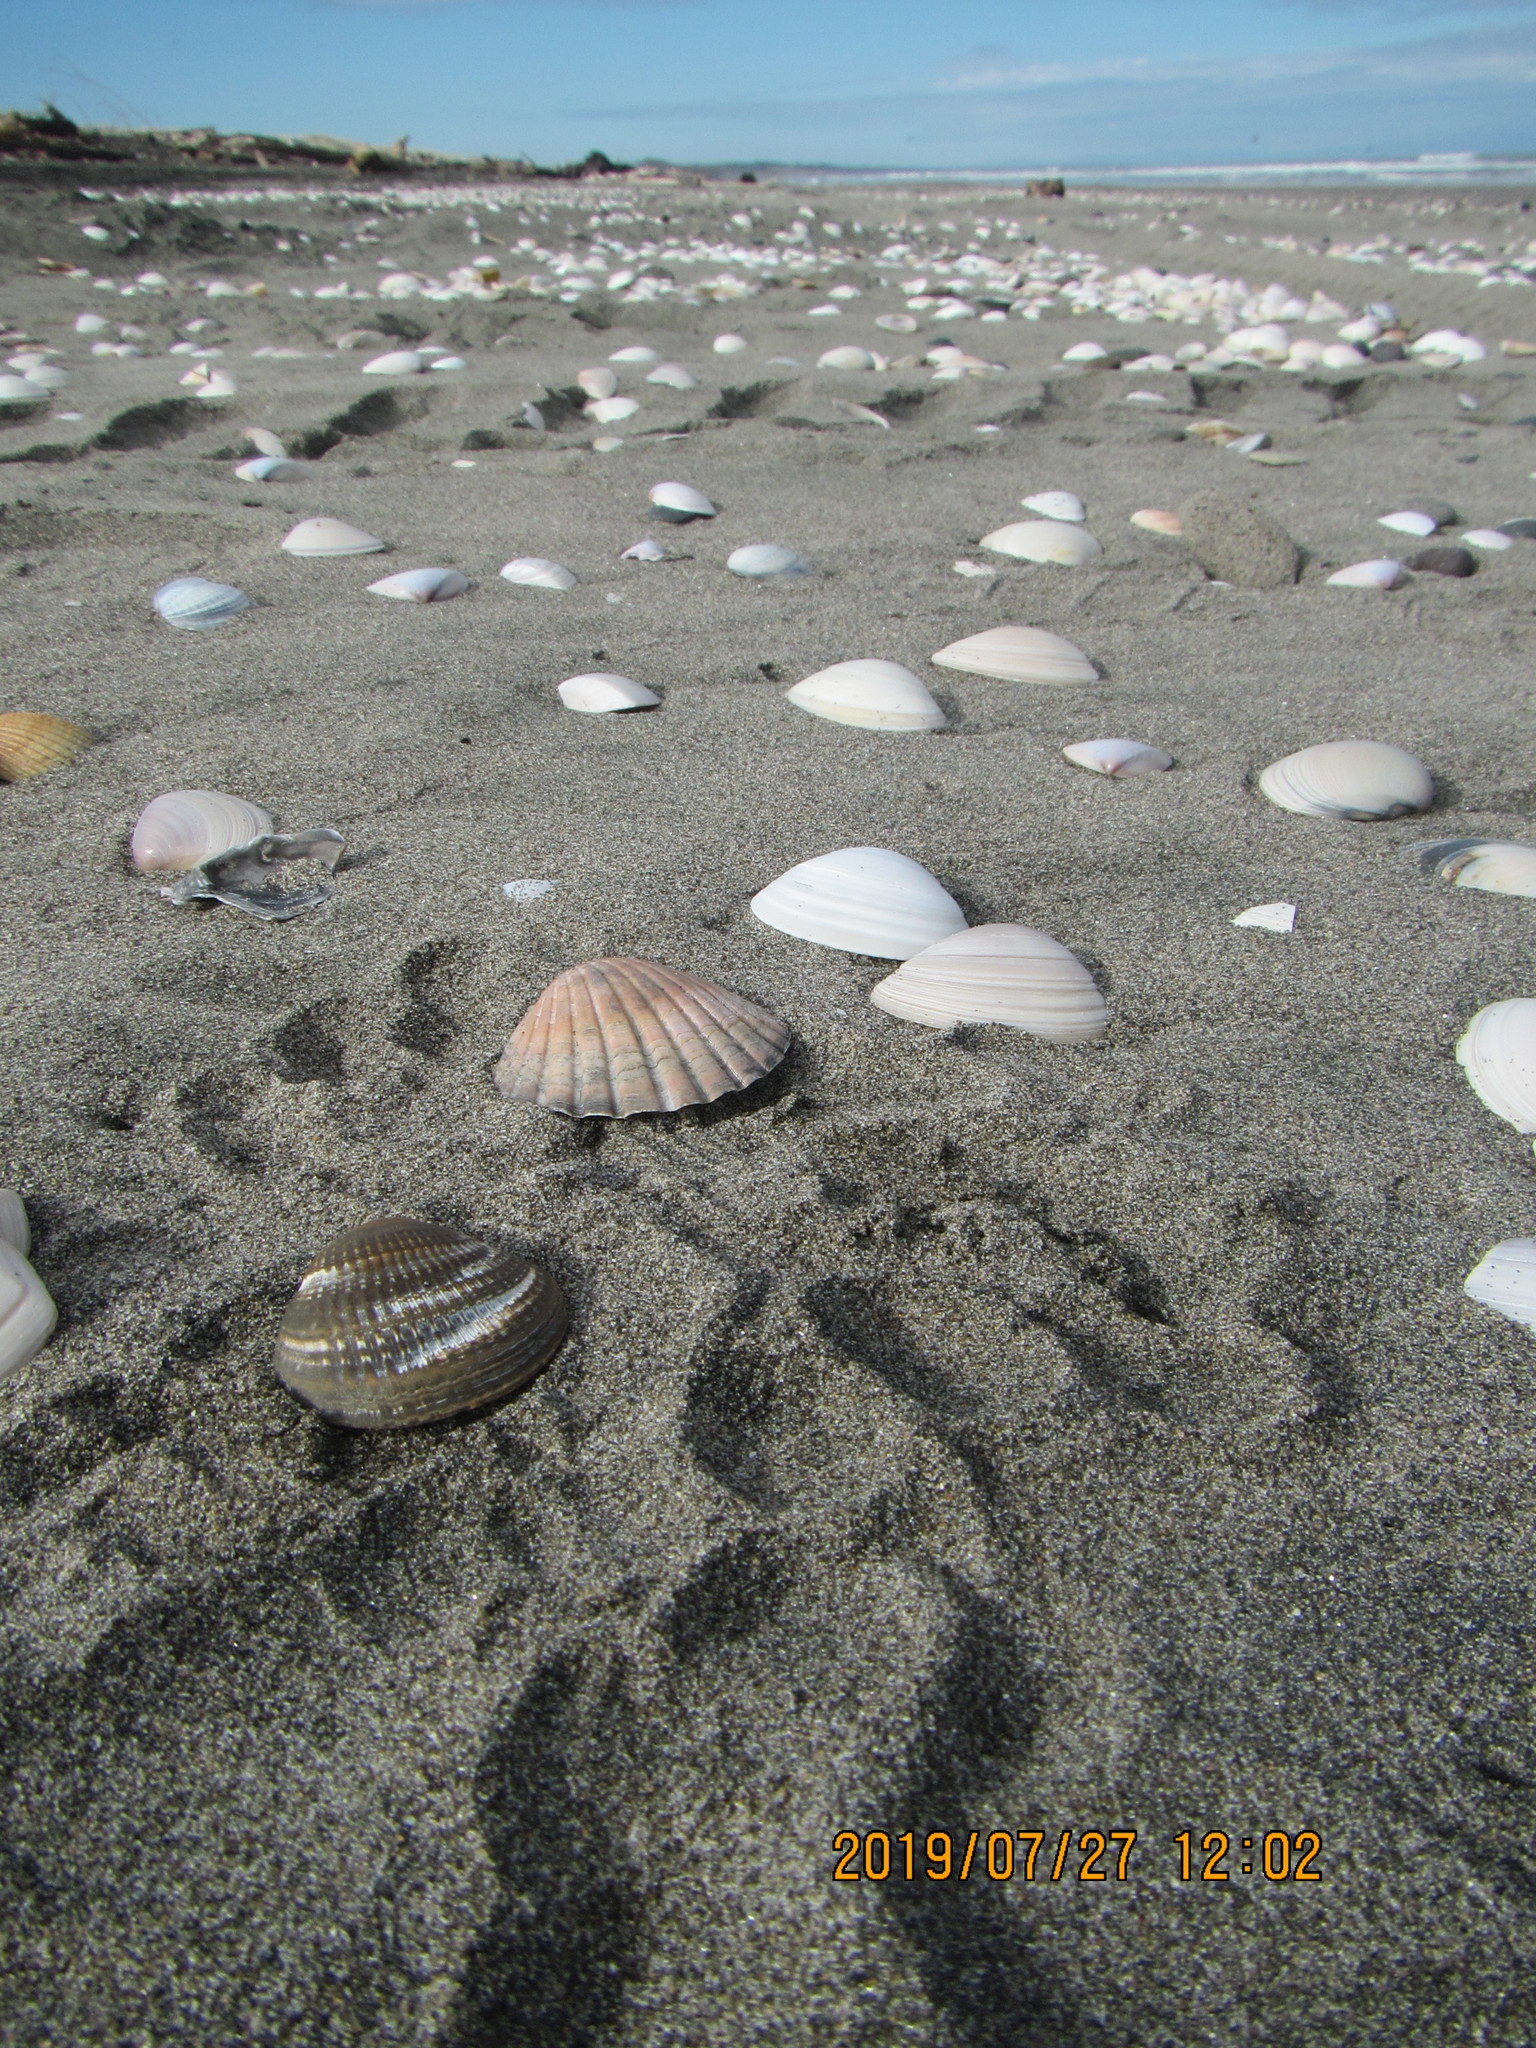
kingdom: Animalia
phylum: Mollusca
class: Bivalvia
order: Venerida
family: Veneridae
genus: Austrovenus
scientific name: Austrovenus stutchburyi
